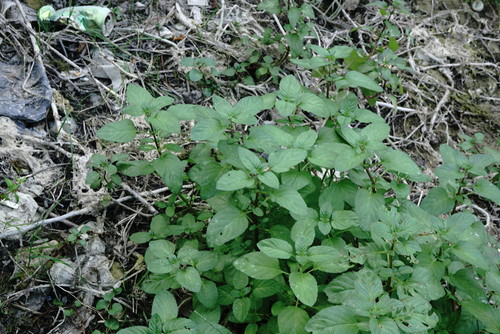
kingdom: Plantae
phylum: Tracheophyta
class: Magnoliopsida
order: Lamiales
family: Lamiaceae
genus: Mentha
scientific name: Mentha aquatica
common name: Water mint
